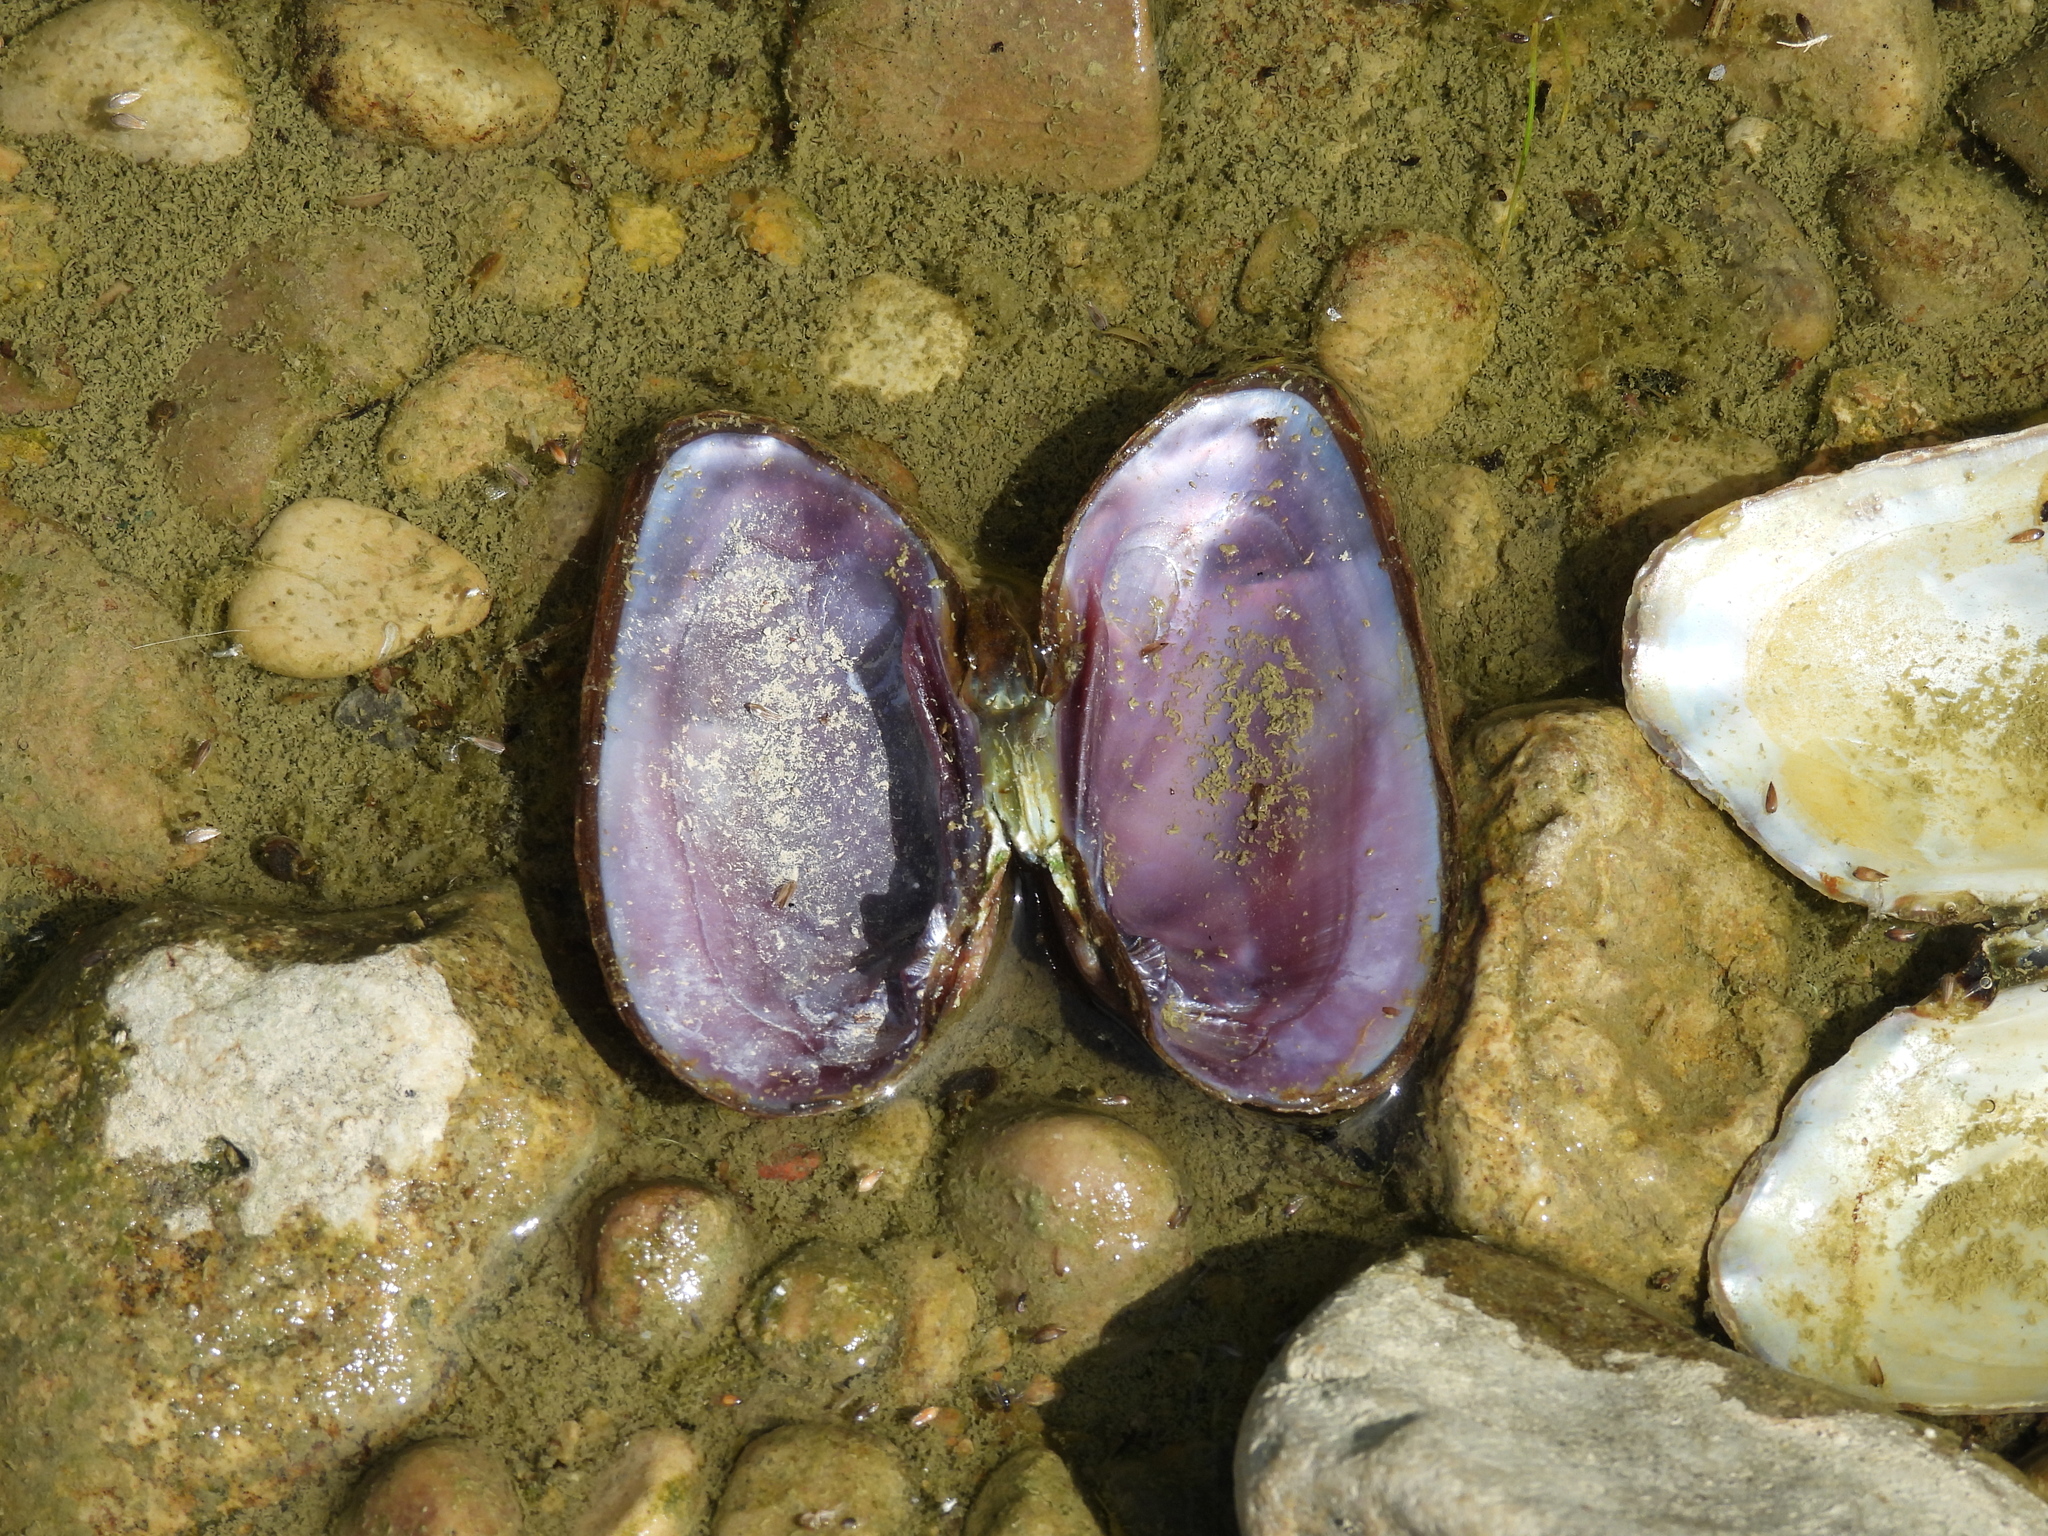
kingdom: Animalia
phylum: Mollusca
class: Bivalvia
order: Unionida
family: Unionidae
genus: Eurynia
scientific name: Eurynia dilatata
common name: Spike
